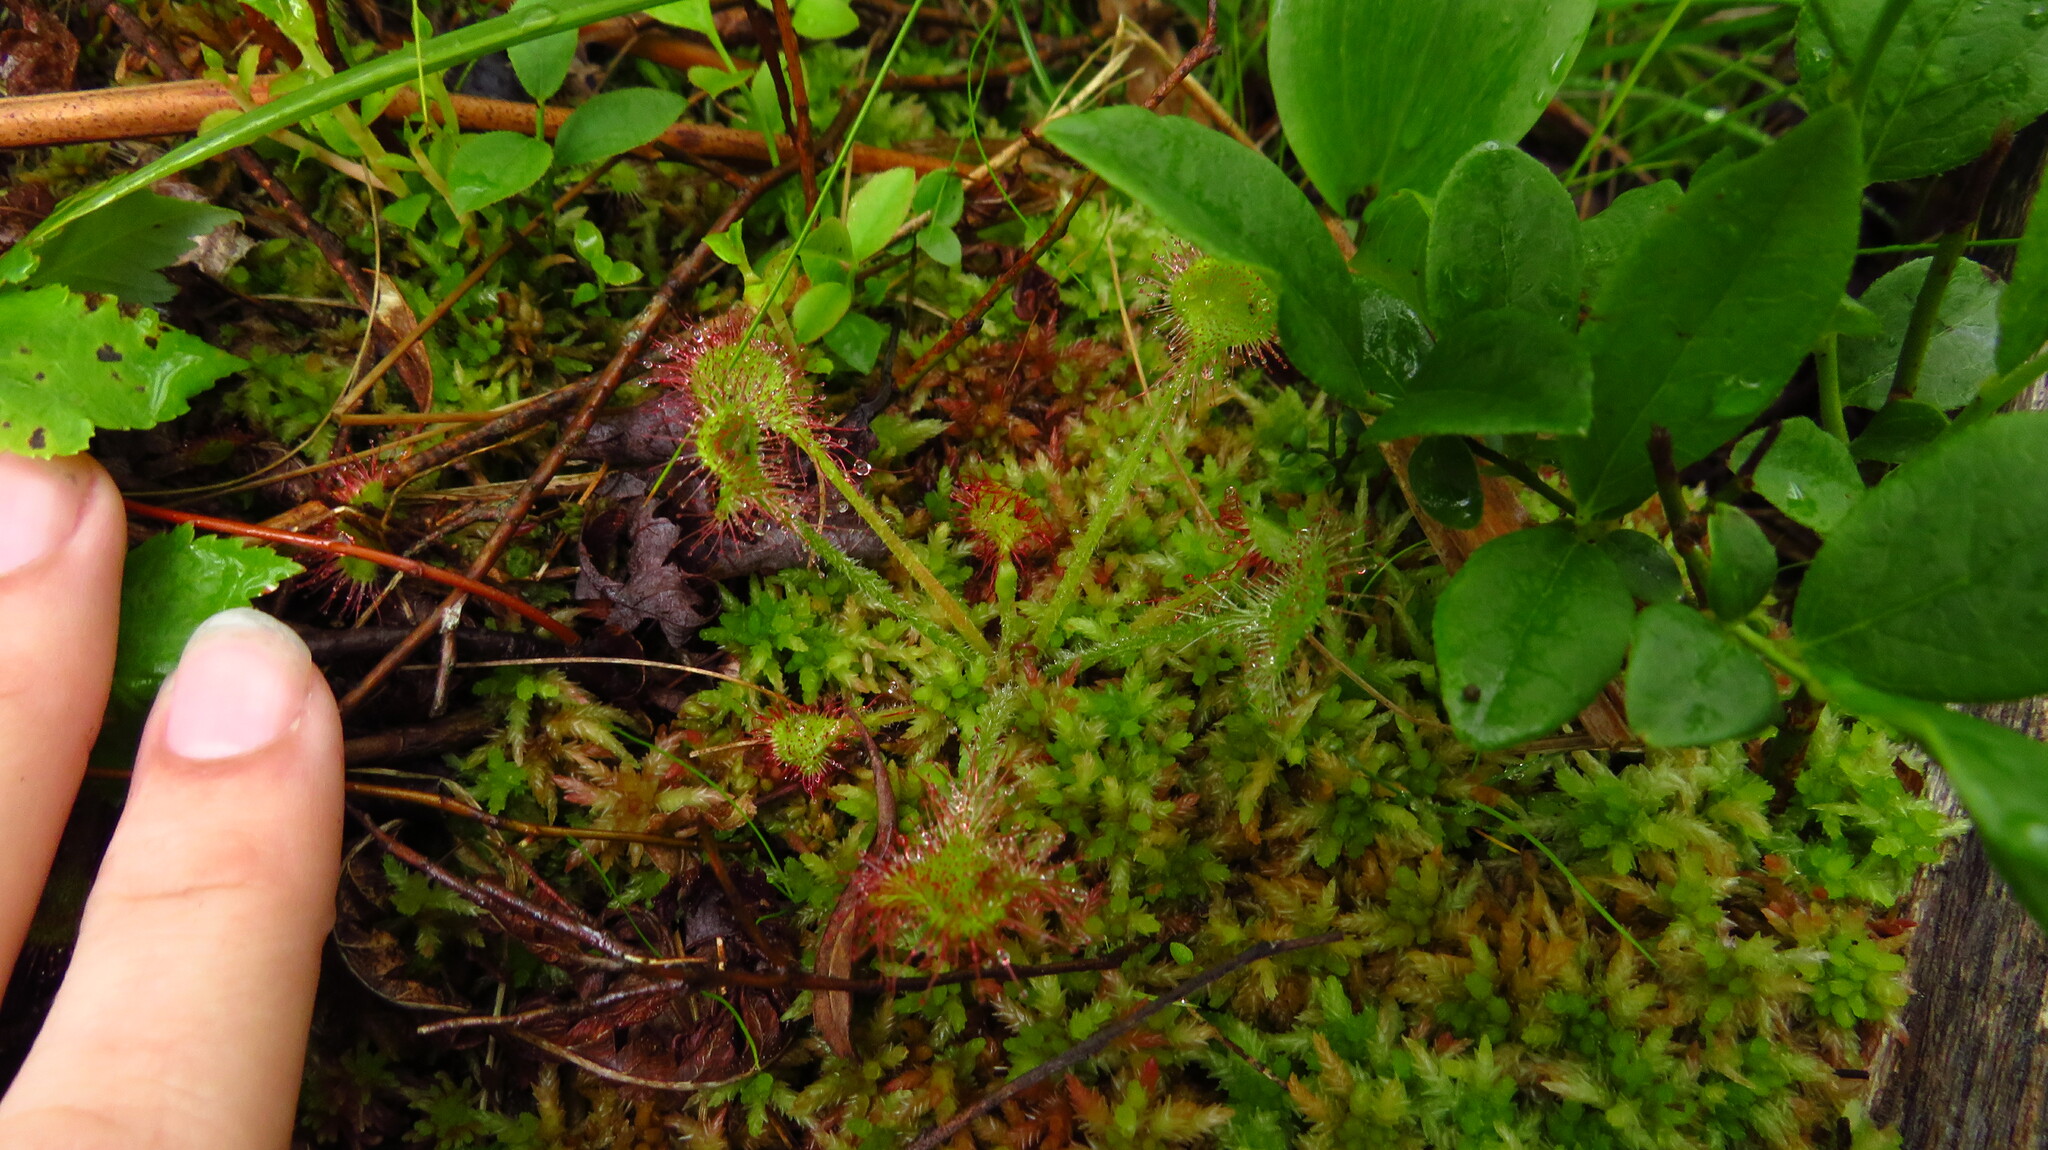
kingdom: Plantae
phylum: Tracheophyta
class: Magnoliopsida
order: Caryophyllales
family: Droseraceae
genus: Drosera
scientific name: Drosera rotundifolia
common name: Round-leaved sundew
